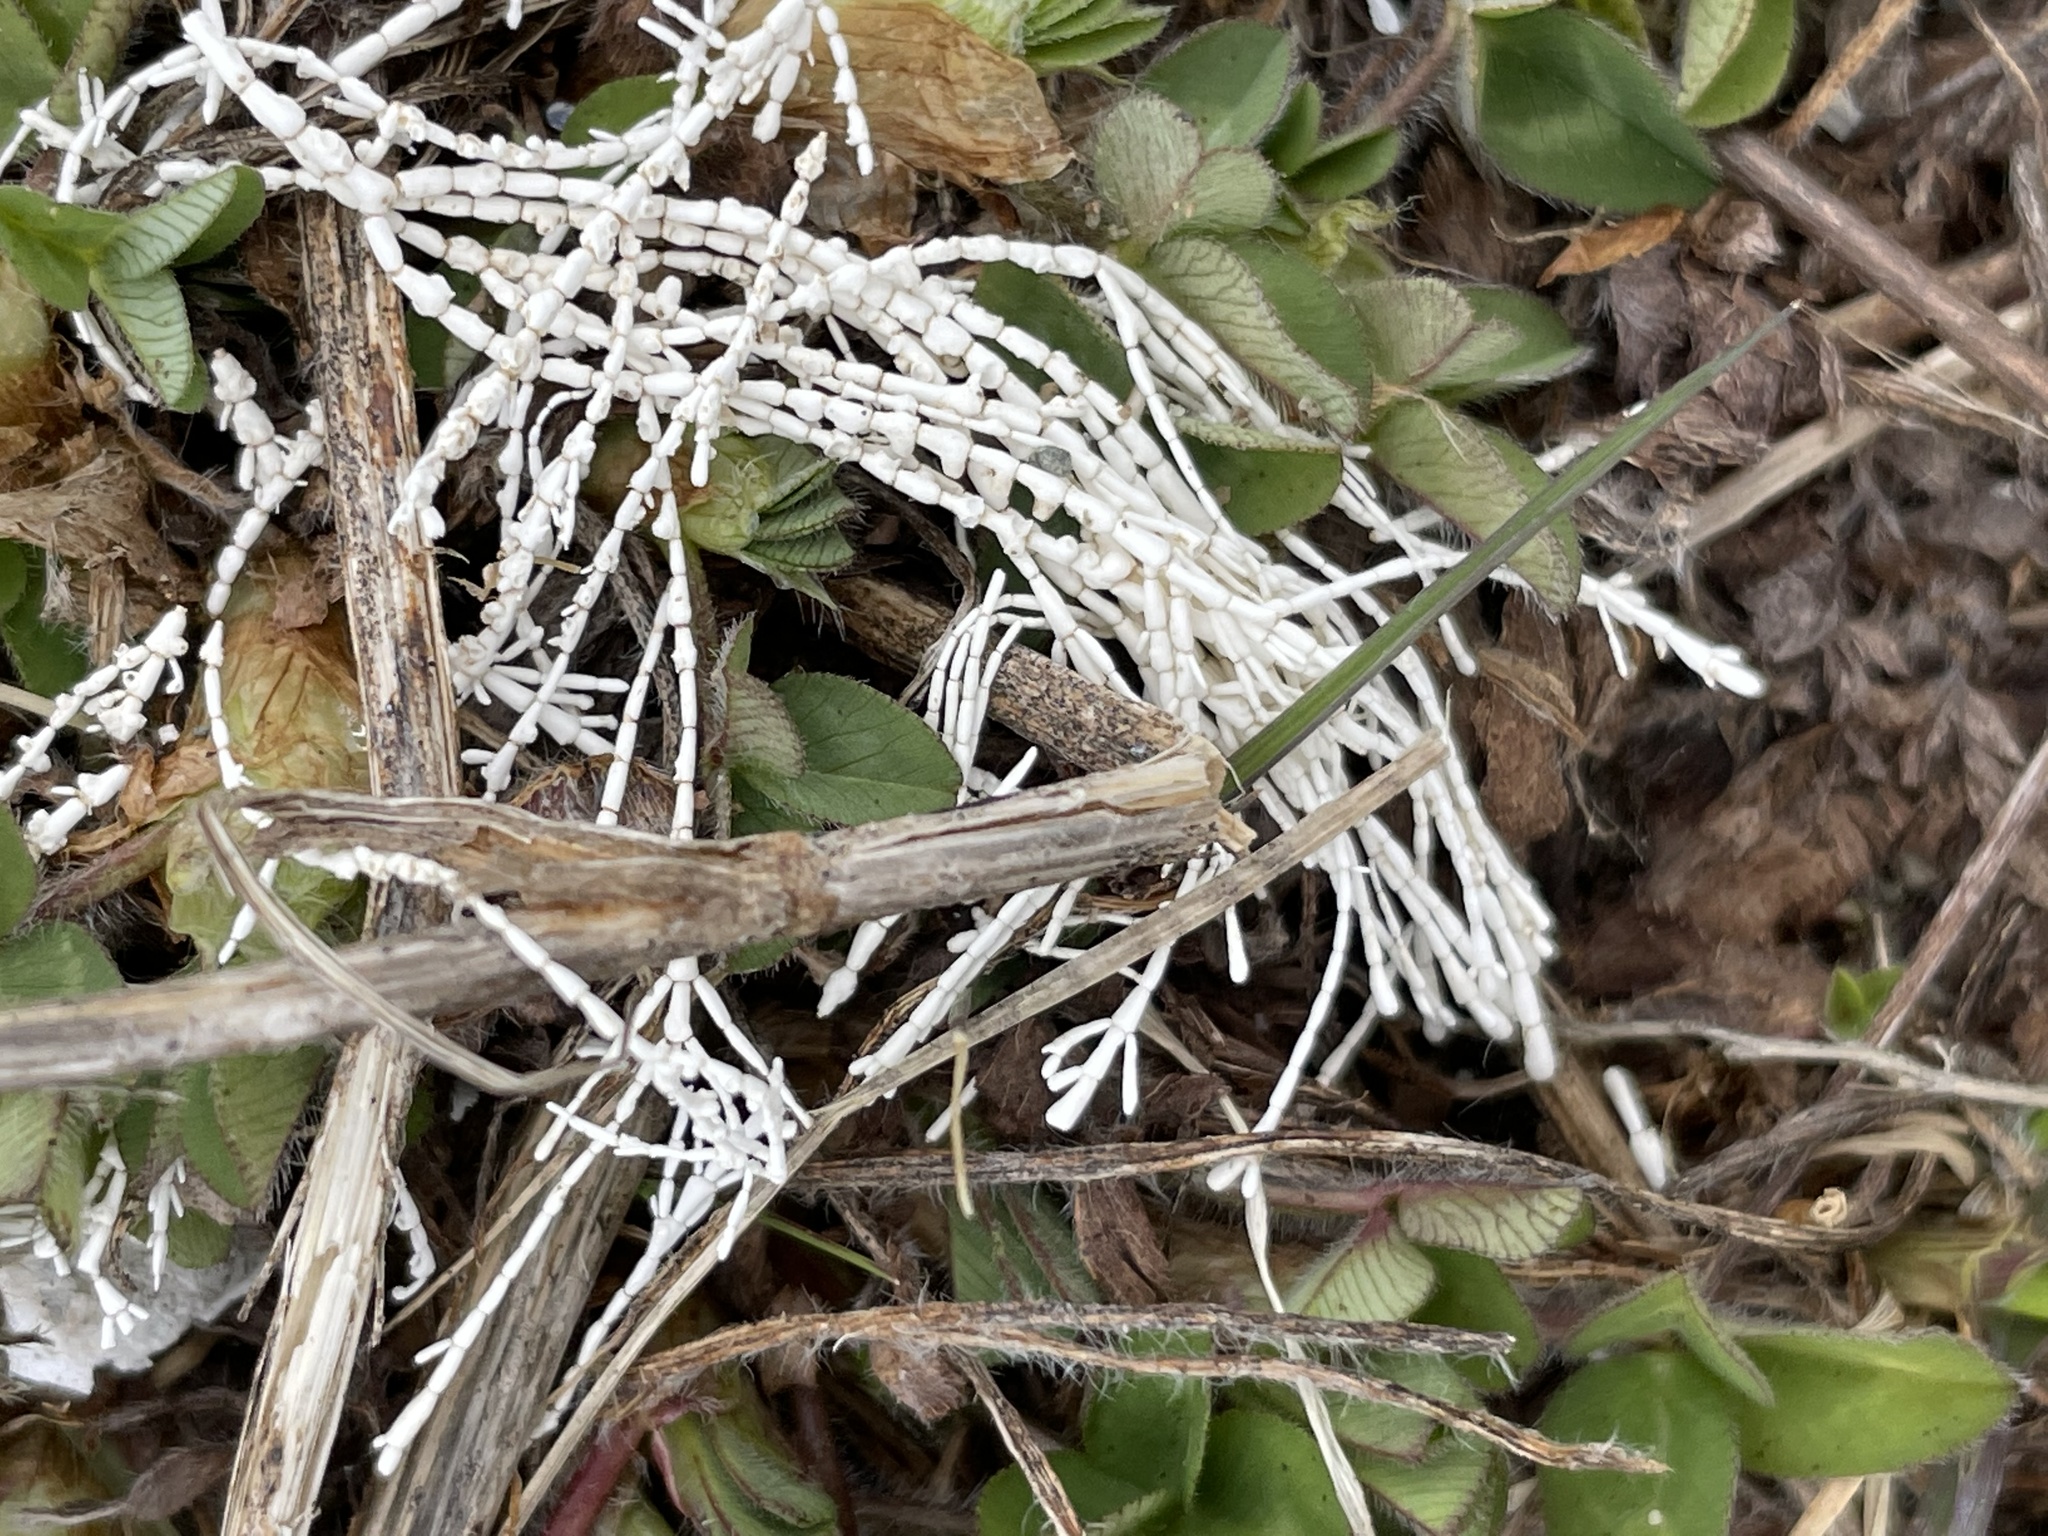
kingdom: Plantae
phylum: Rhodophyta
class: Florideophyceae
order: Corallinales
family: Corallinaceae
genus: Corallina
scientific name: Corallina officinalis
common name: Coral weed
